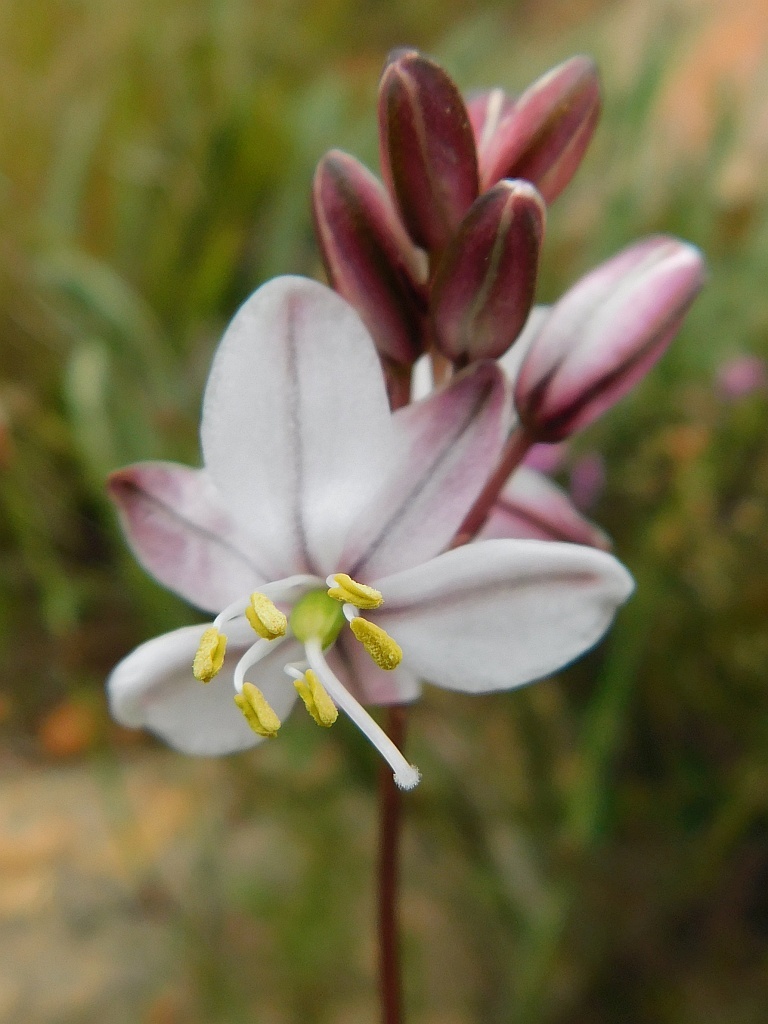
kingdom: Plantae
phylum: Tracheophyta
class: Liliopsida
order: Asparagales
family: Asparagaceae
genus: Drimia
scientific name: Drimia exuviata
